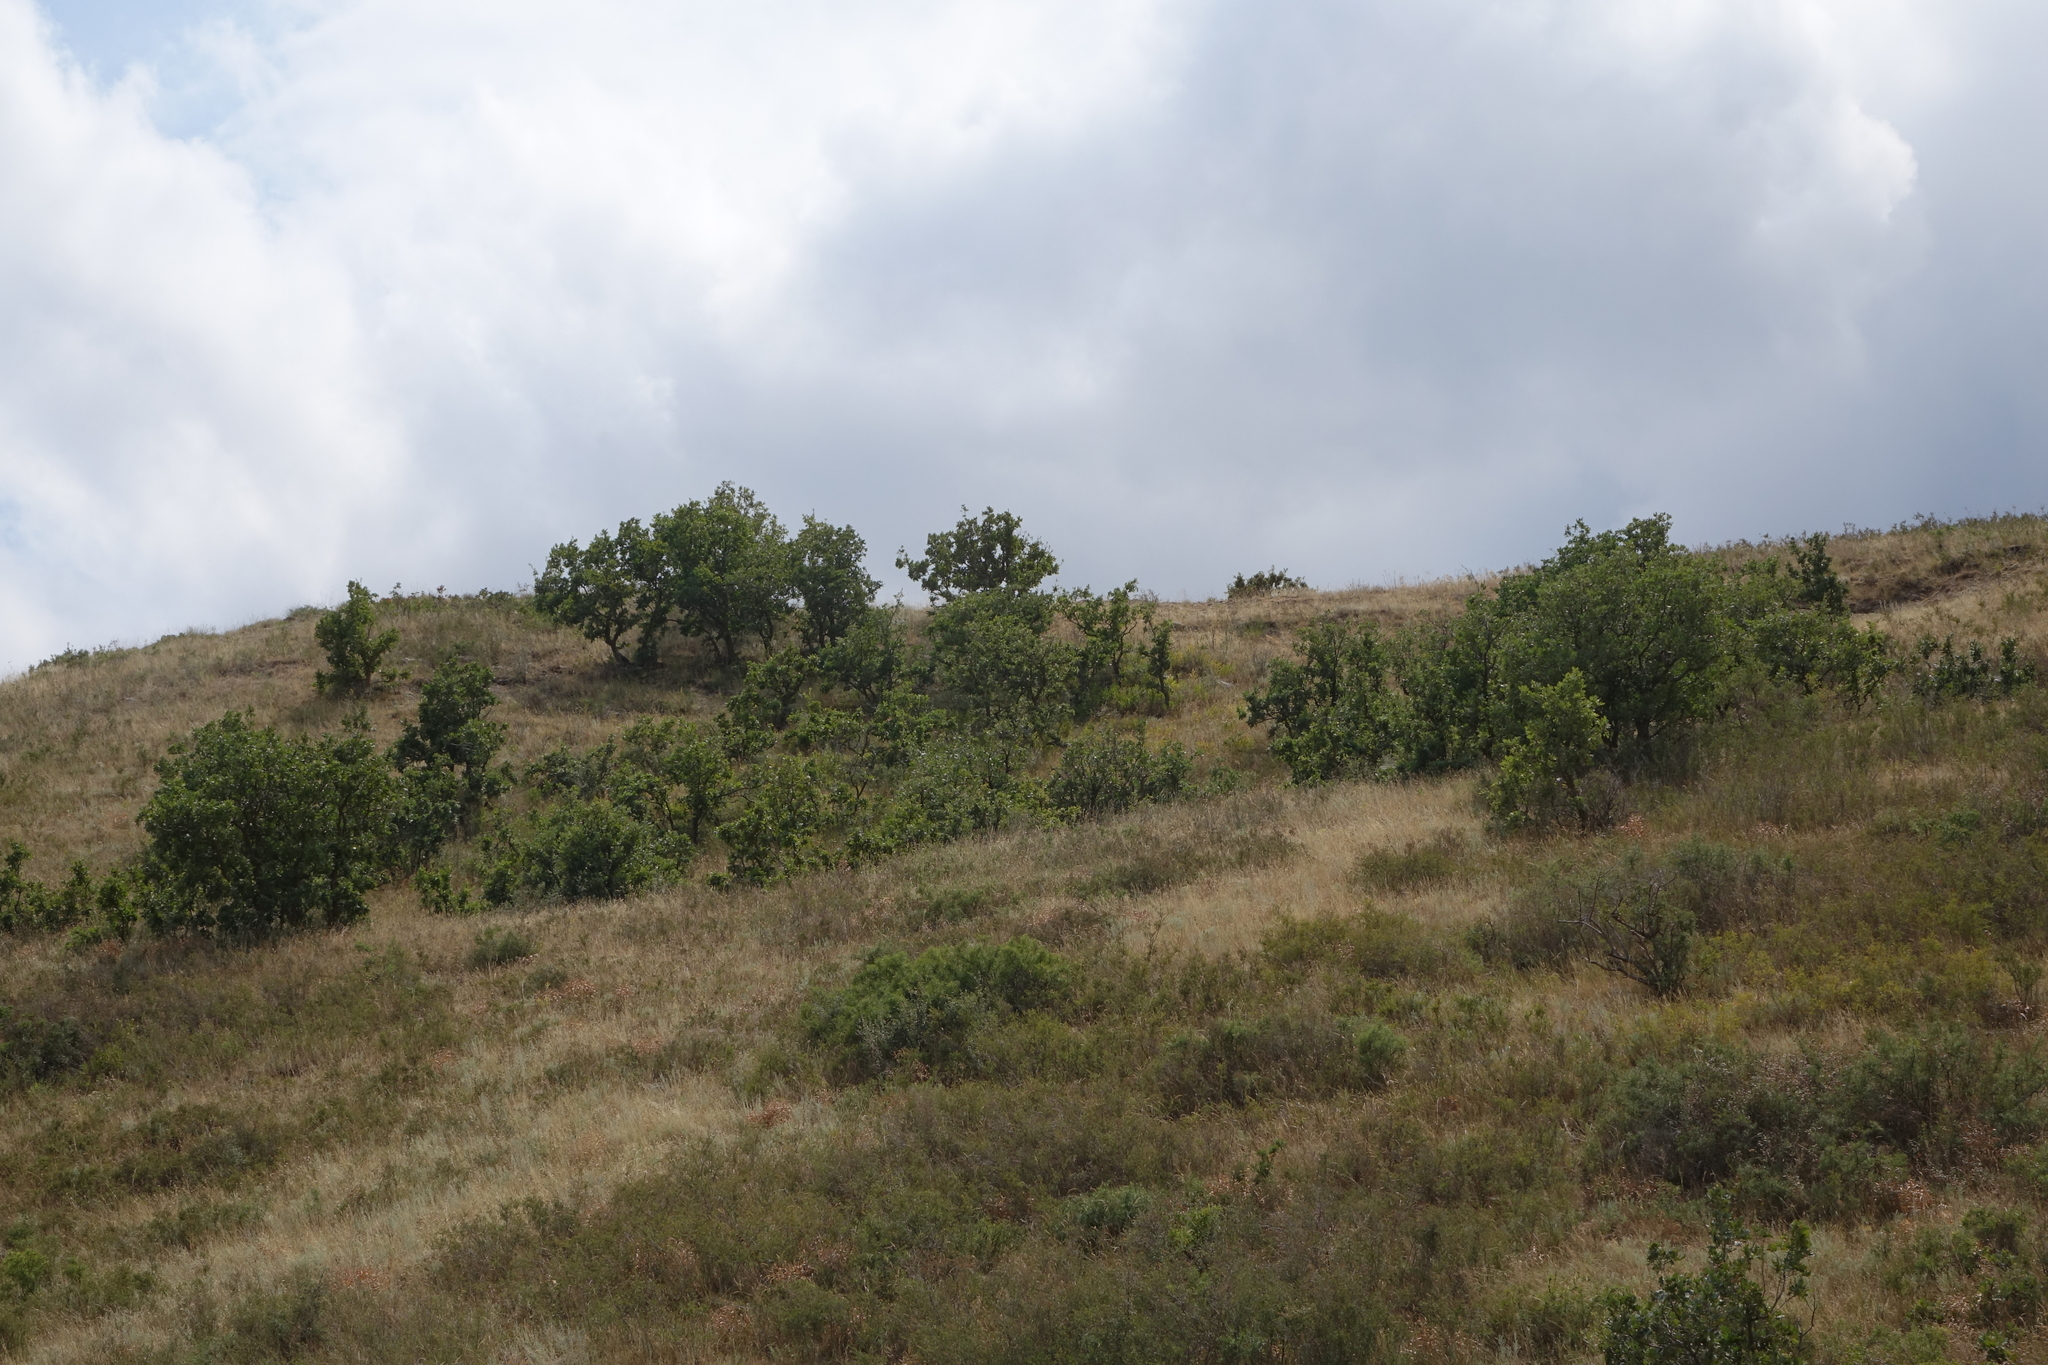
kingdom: Plantae
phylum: Tracheophyta
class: Magnoliopsida
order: Fagales
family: Fagaceae
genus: Quercus
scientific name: Quercus petraea
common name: Sessile oak
